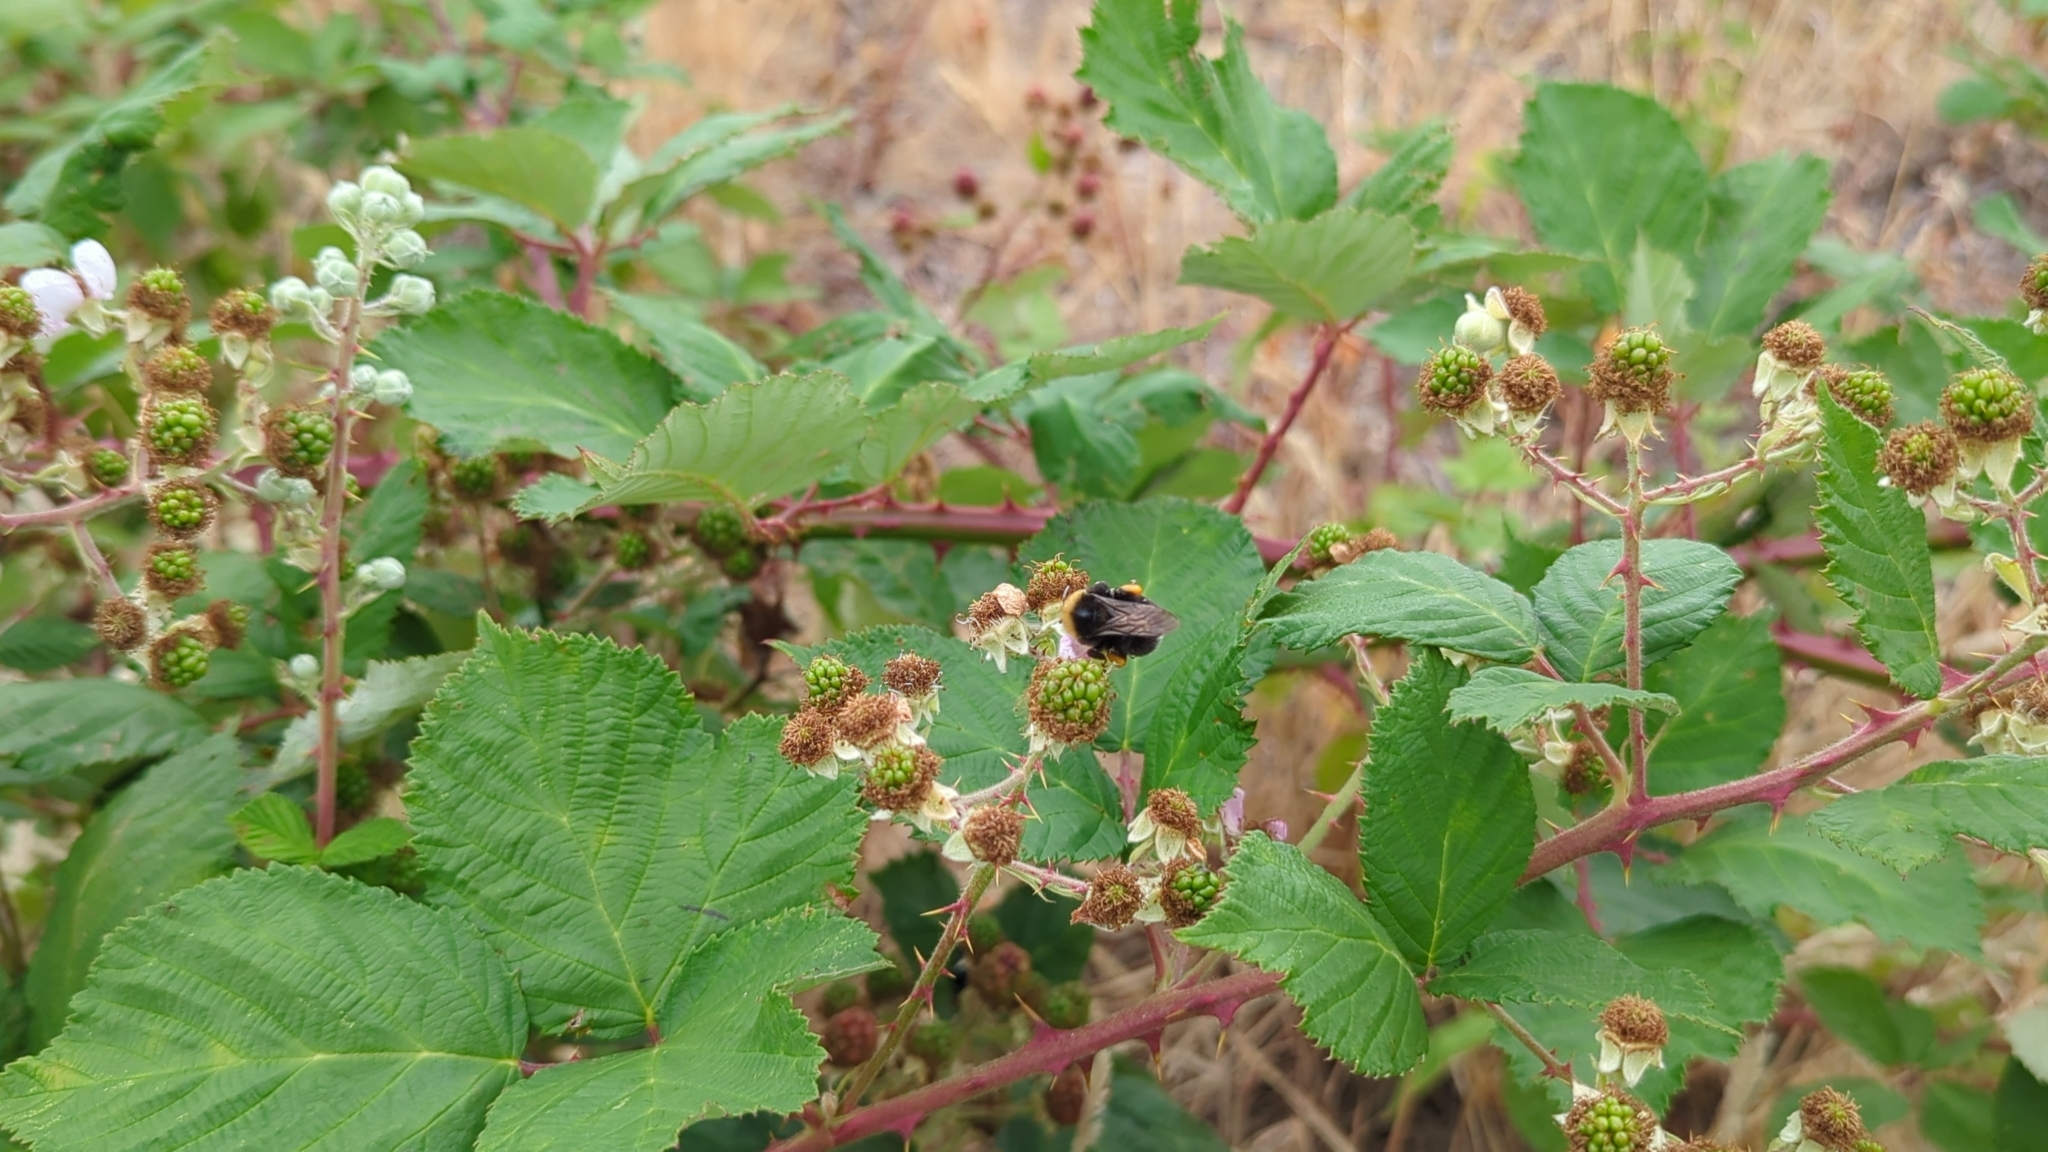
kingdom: Animalia
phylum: Arthropoda
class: Insecta
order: Hymenoptera
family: Apidae
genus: Bombus
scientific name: Bombus occidentalis
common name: Western bumble bee
